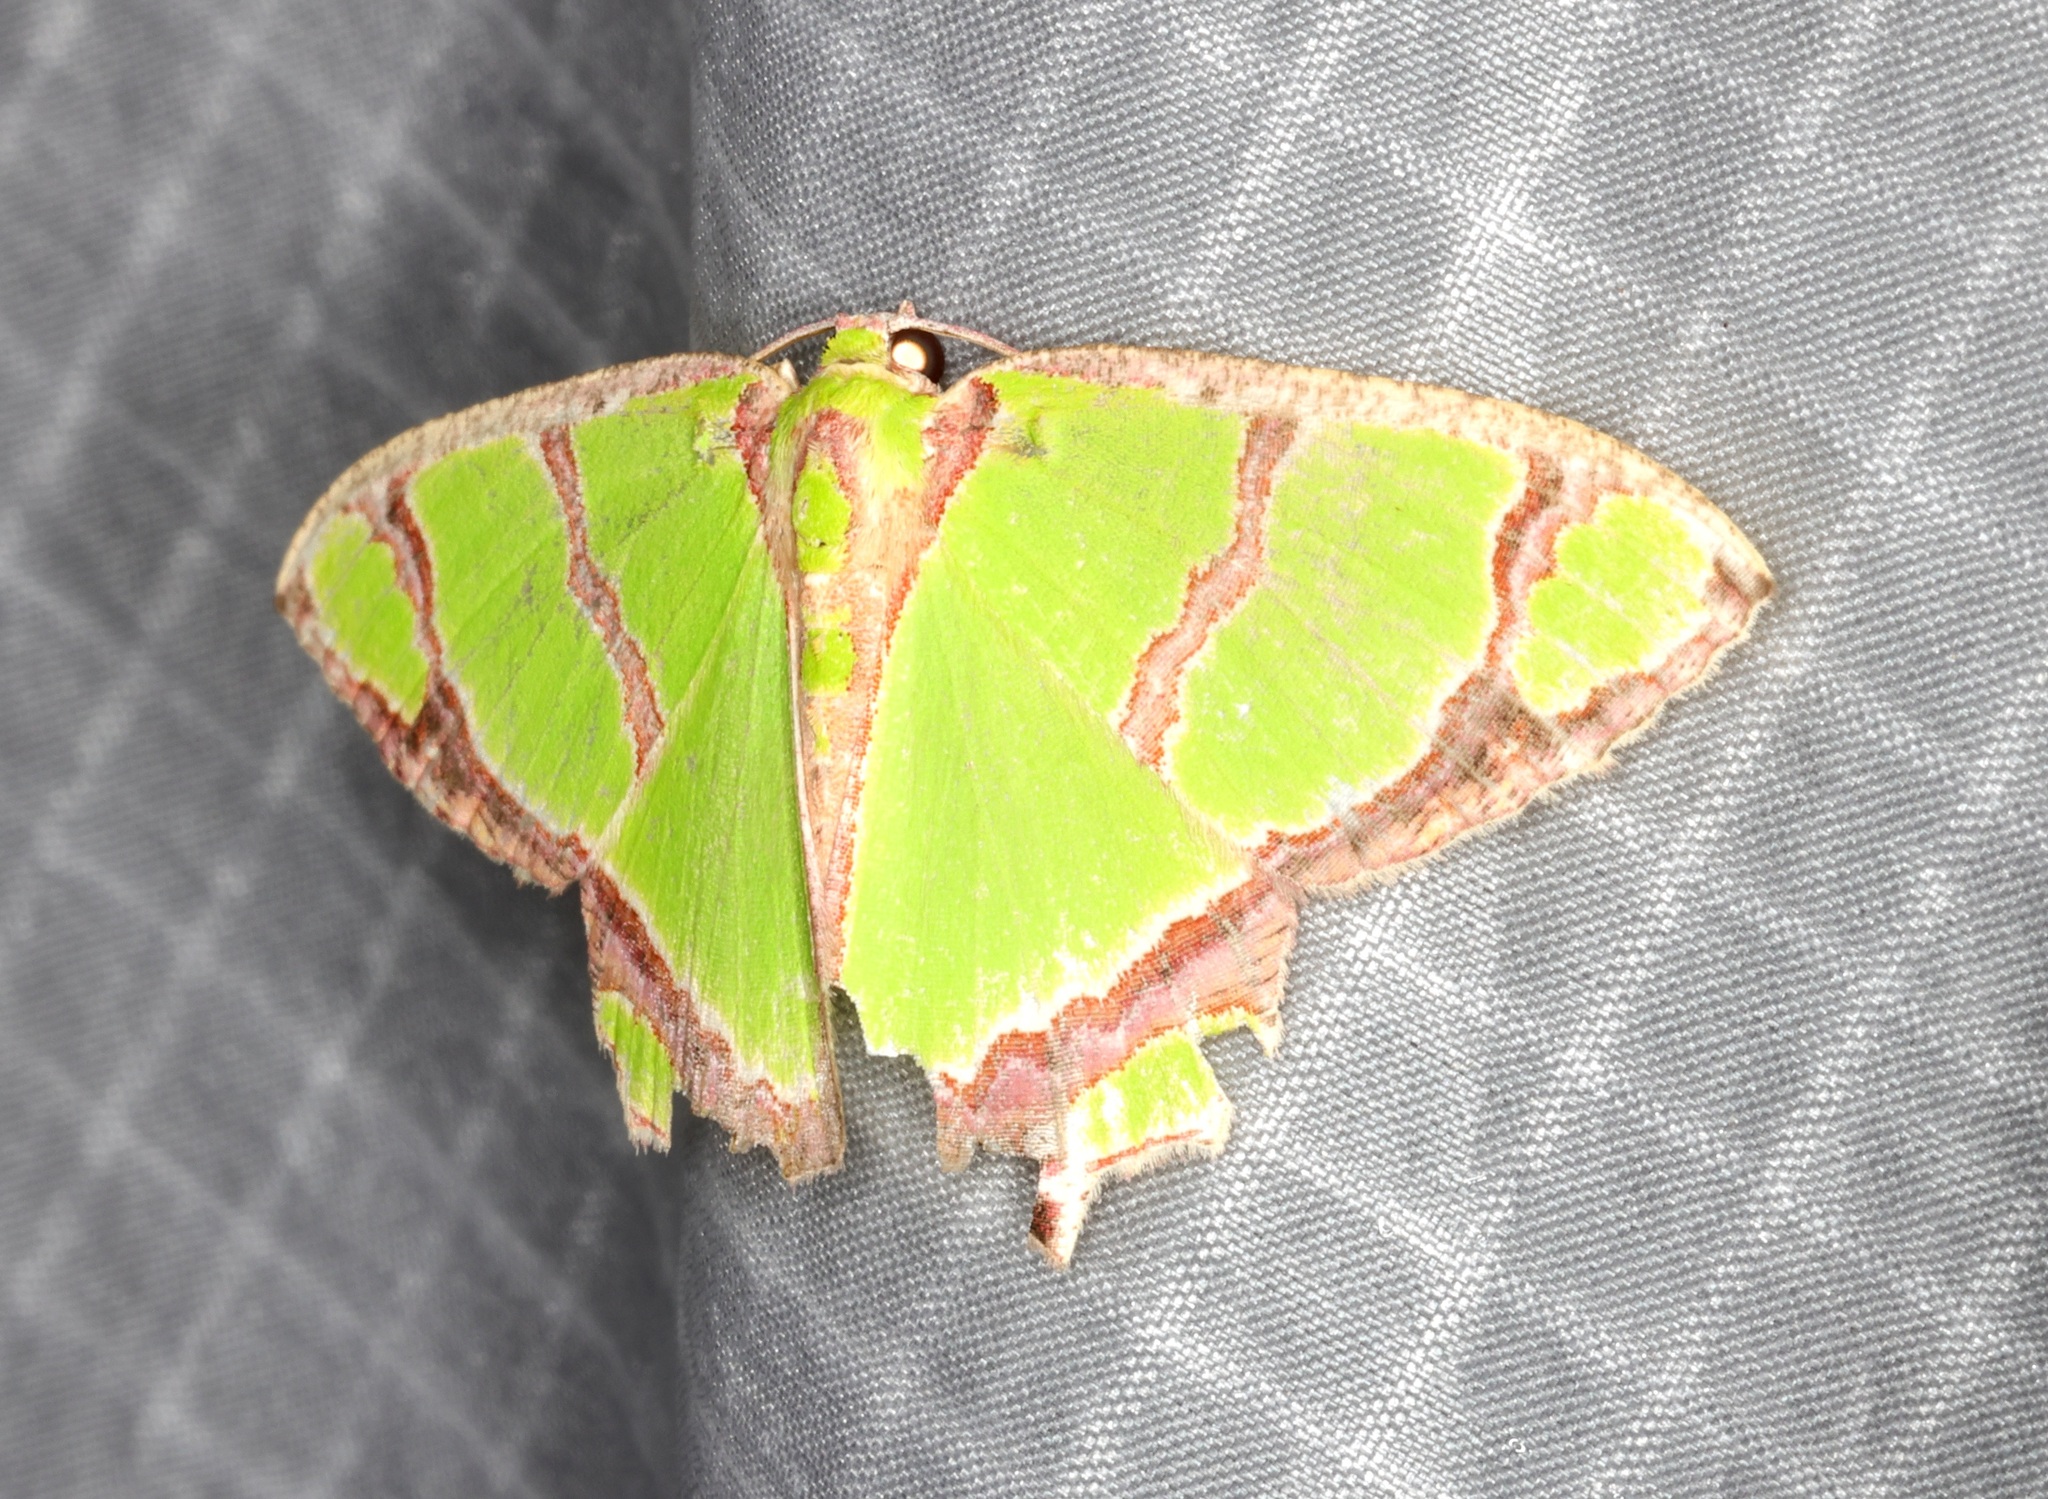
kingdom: Animalia
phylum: Arthropoda
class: Insecta
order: Lepidoptera
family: Geometridae
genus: Agathia
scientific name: Agathia carissima
